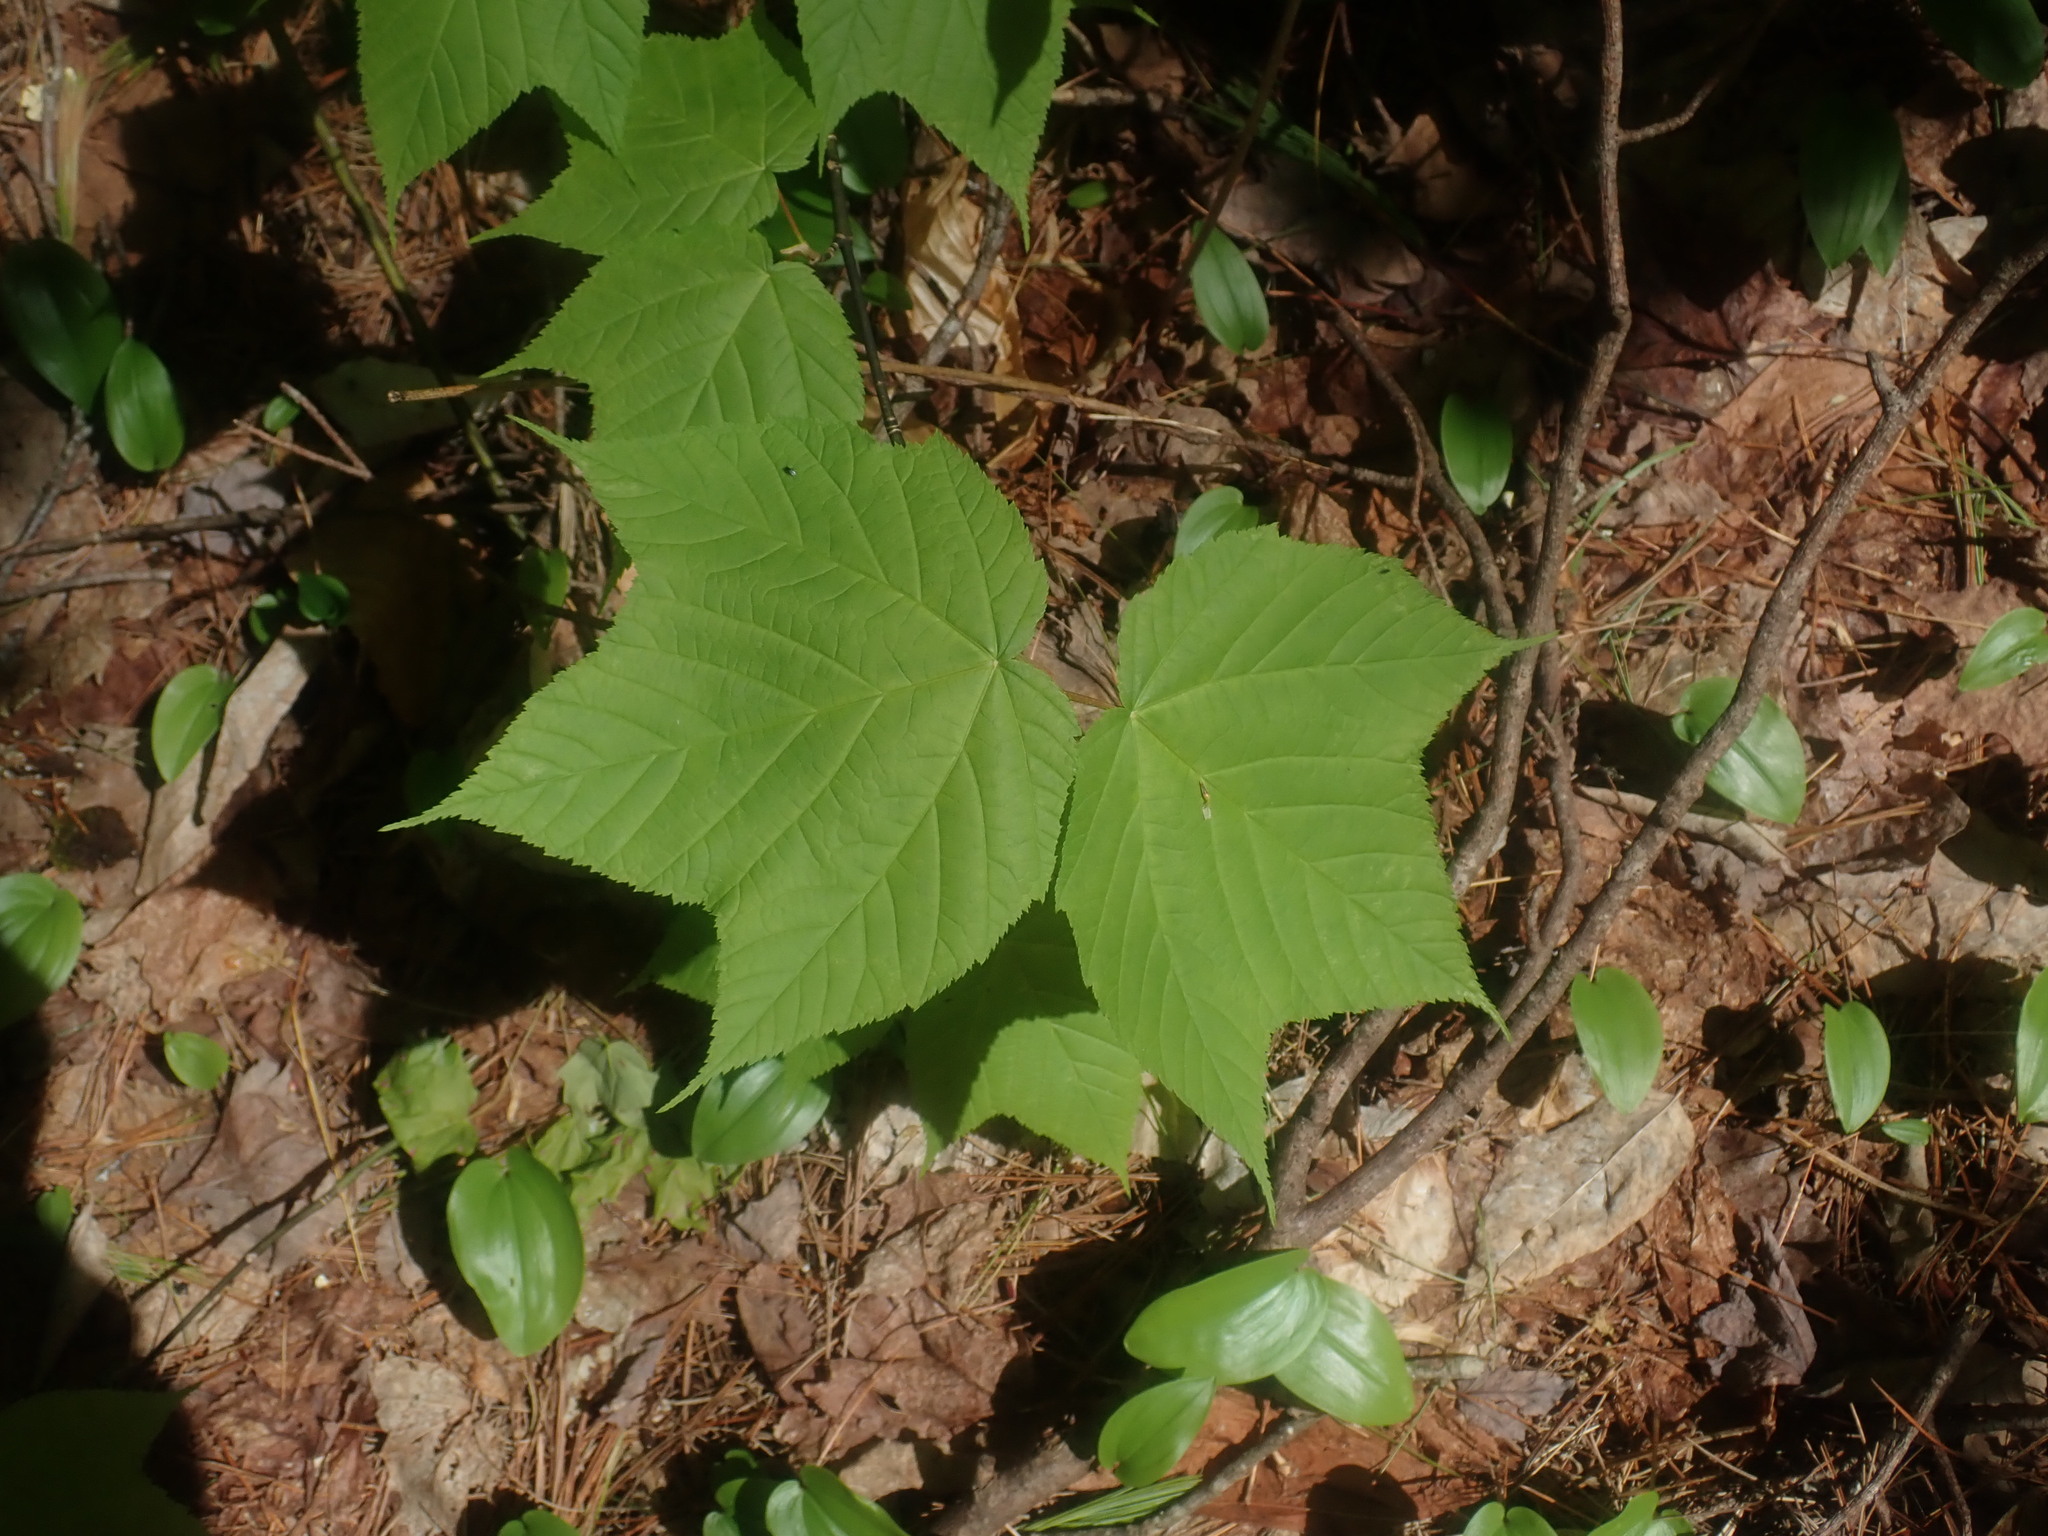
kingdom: Plantae
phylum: Tracheophyta
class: Magnoliopsida
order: Sapindales
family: Sapindaceae
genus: Acer
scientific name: Acer pensylvanicum
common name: Moosewood
